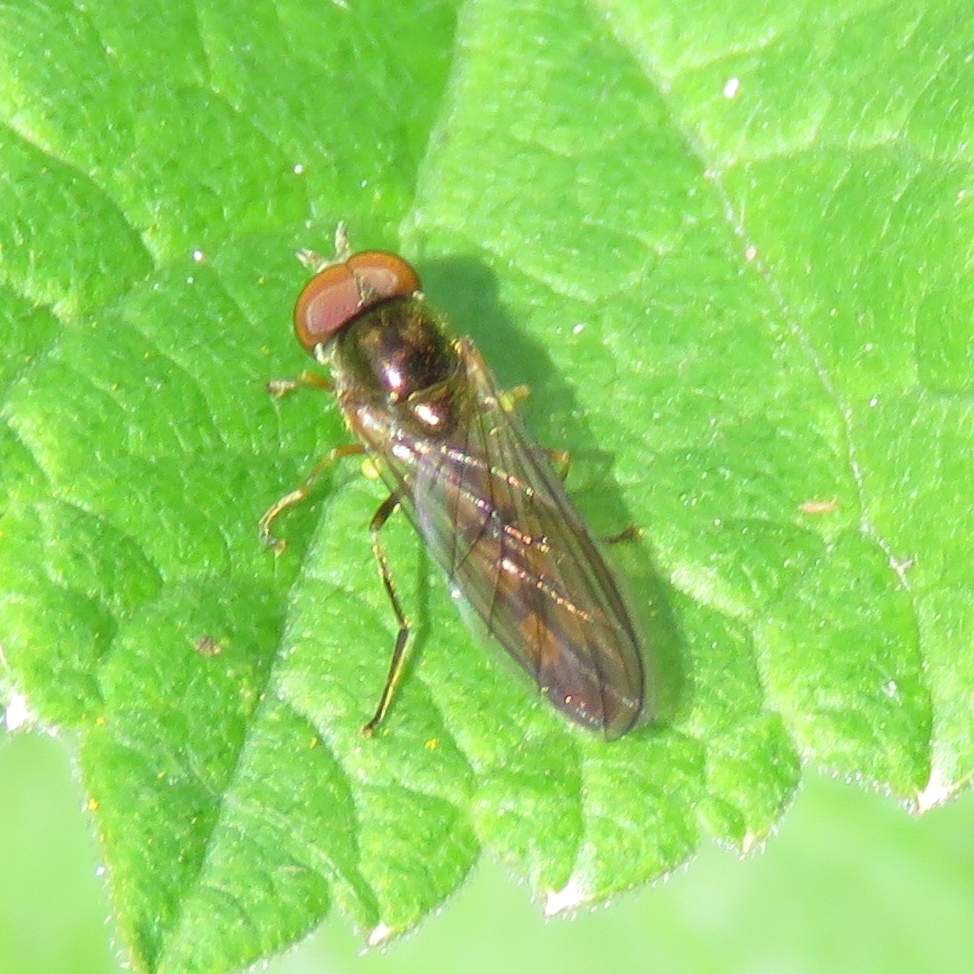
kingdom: Animalia
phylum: Arthropoda
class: Insecta
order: Diptera
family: Syrphidae
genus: Melanostoma
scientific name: Melanostoma scalare
